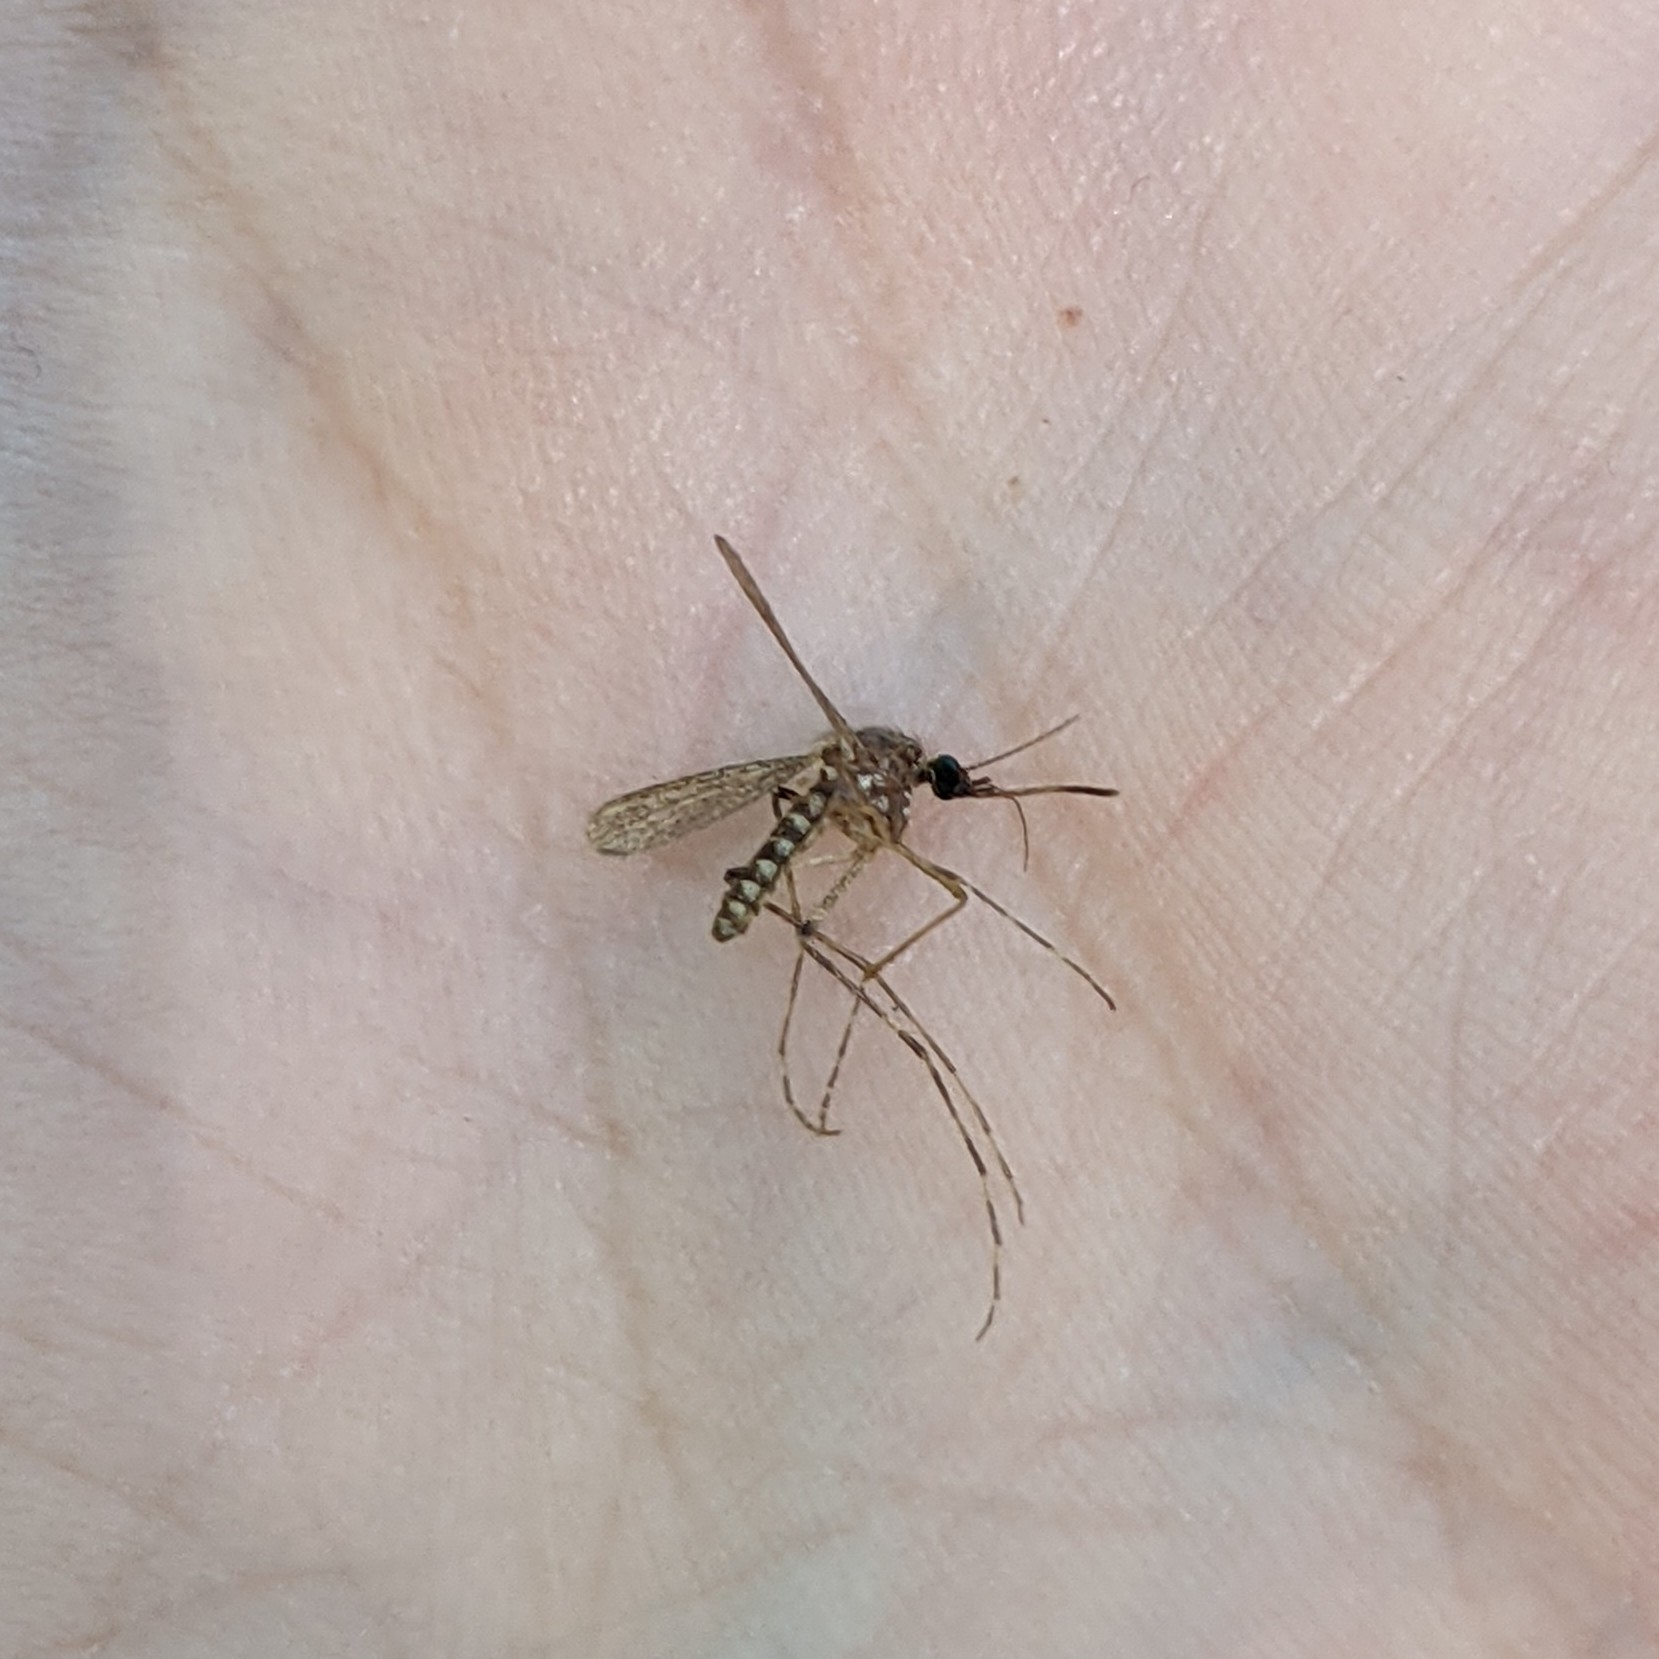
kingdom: Animalia
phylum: Arthropoda
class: Insecta
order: Diptera
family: Culicidae
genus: Coquillettidia
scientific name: Coquillettidia perturbans
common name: Cattail mosquito
